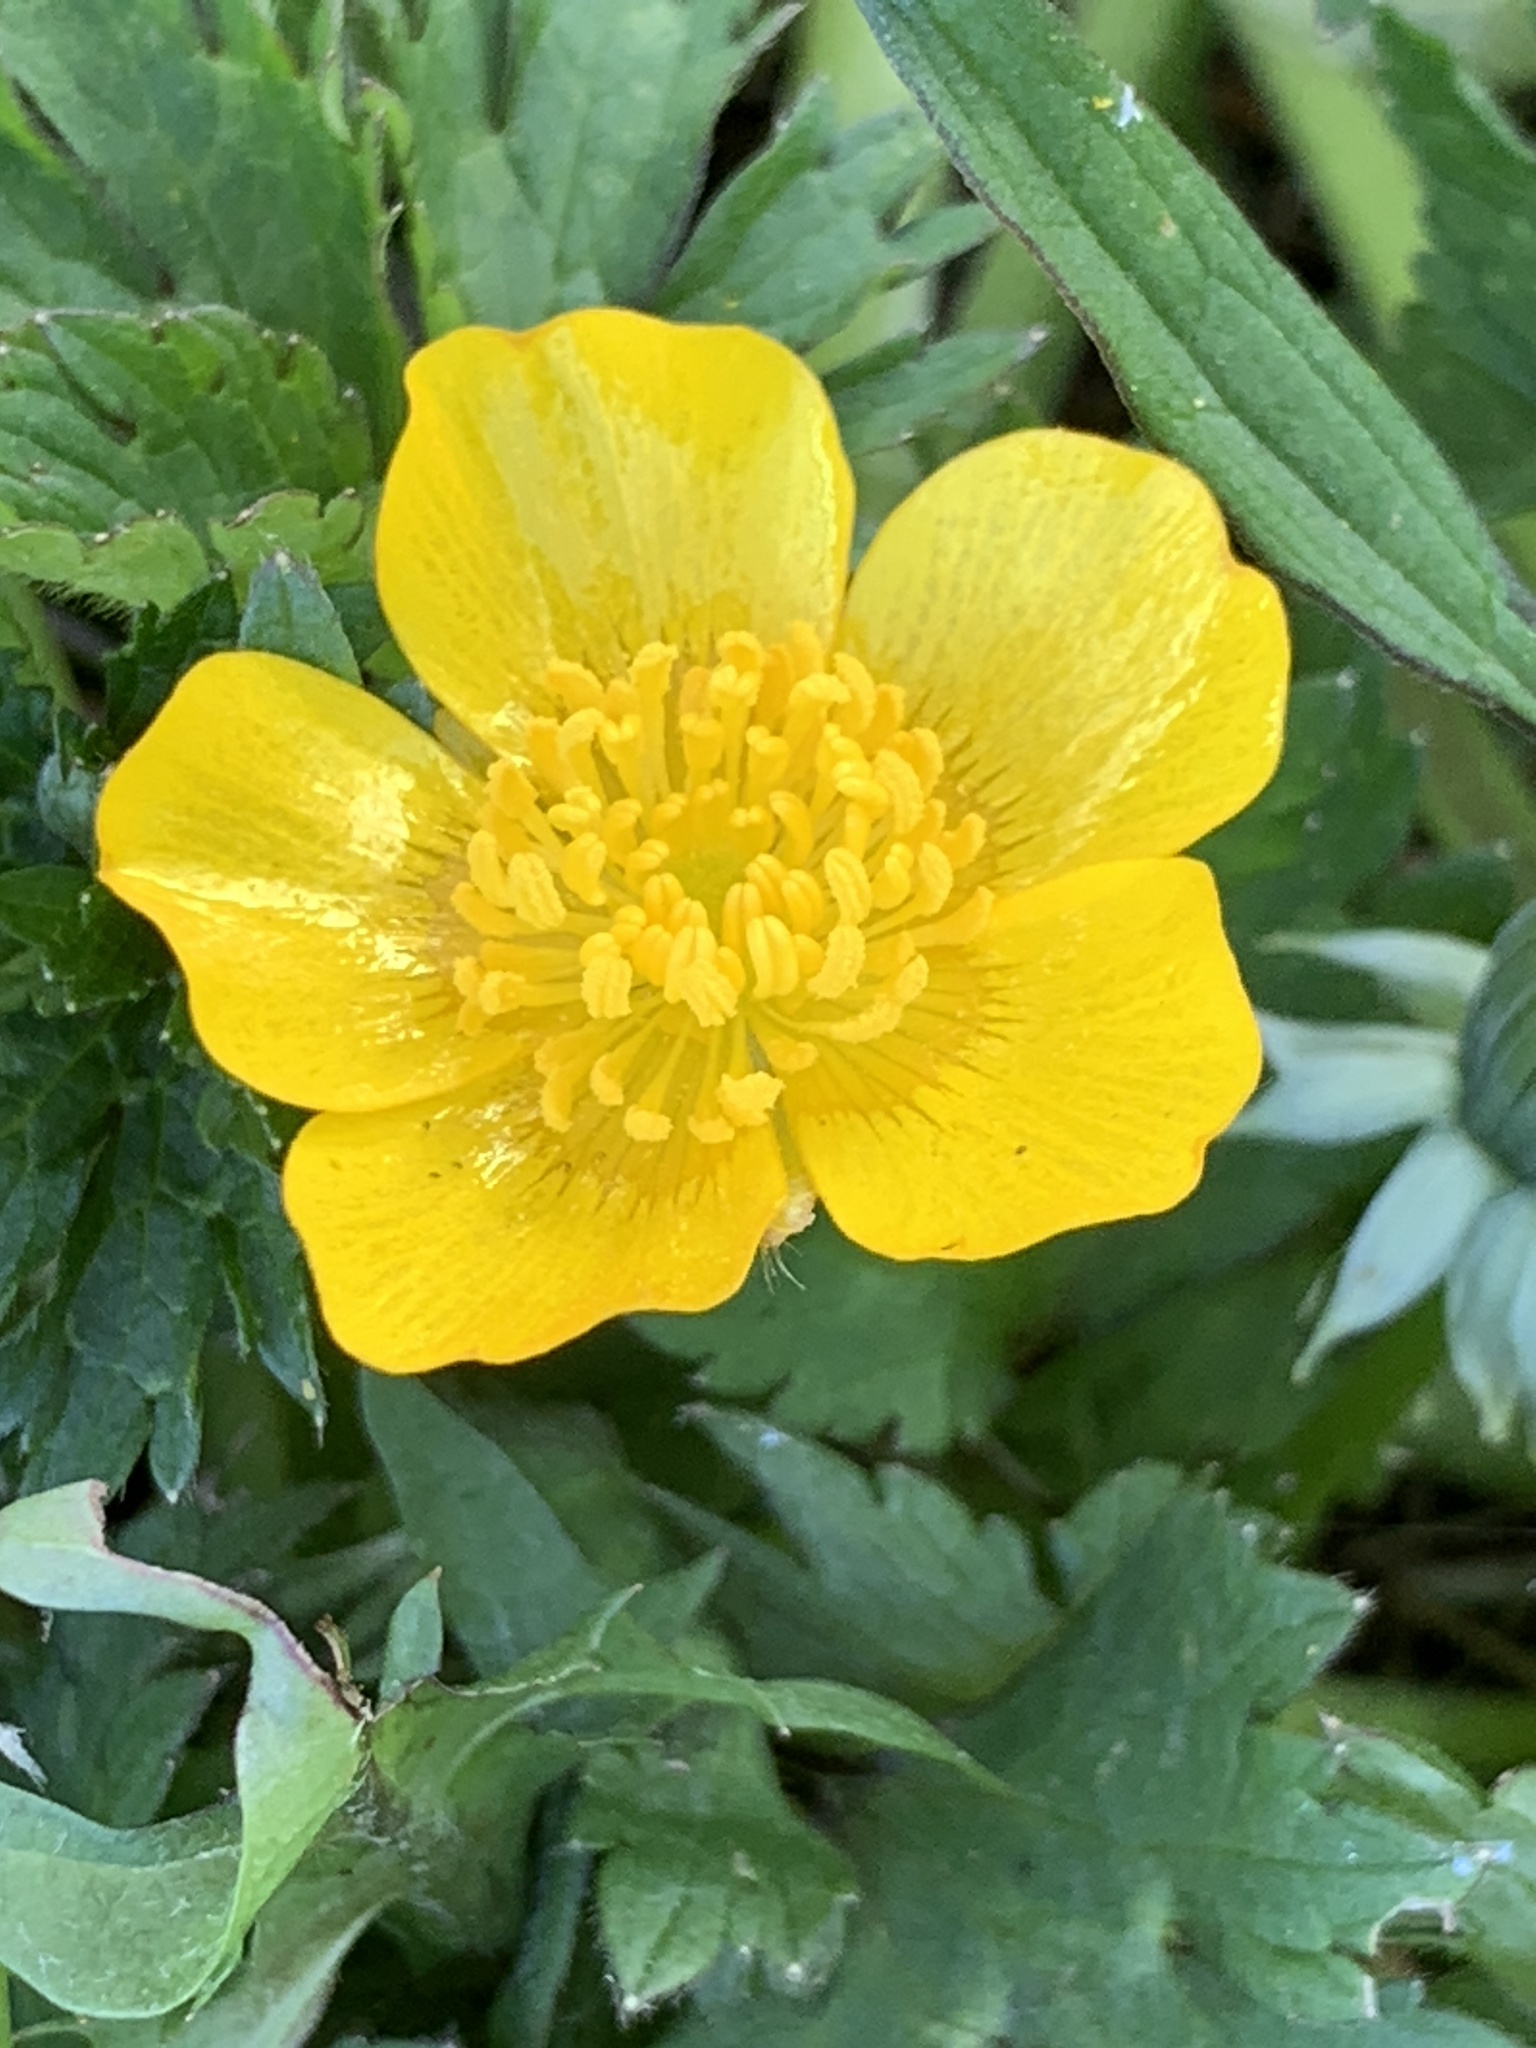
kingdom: Plantae
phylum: Tracheophyta
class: Magnoliopsida
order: Ranunculales
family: Ranunculaceae
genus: Ranunculus
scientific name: Ranunculus repens
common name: Creeping buttercup
